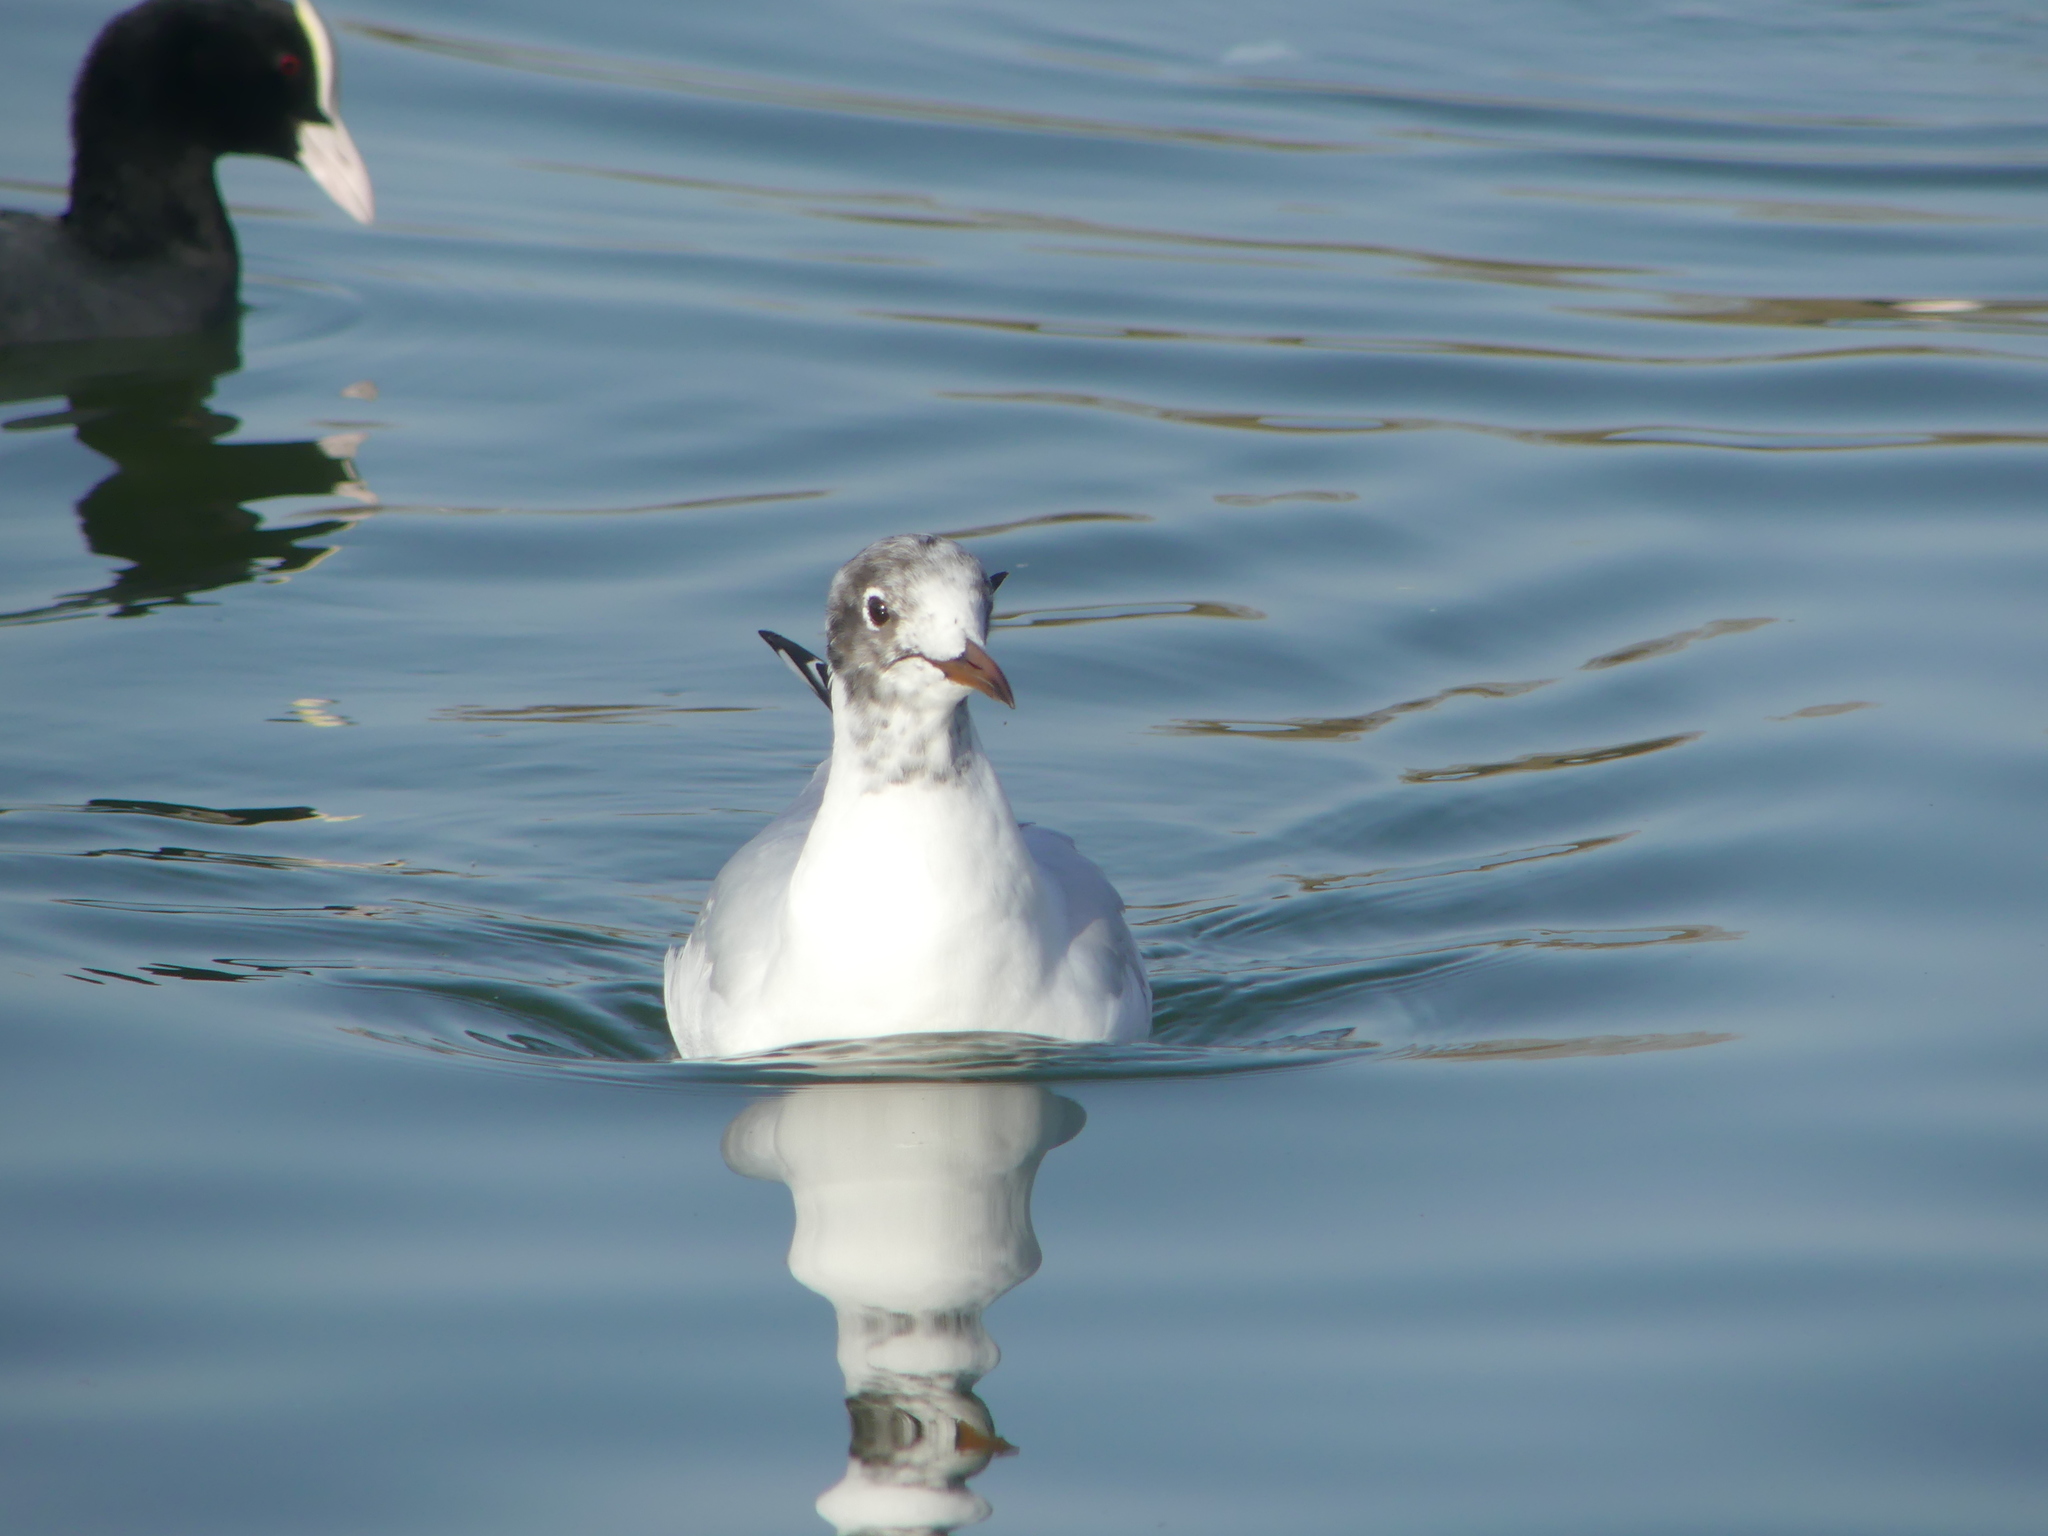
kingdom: Animalia
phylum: Chordata
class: Aves
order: Charadriiformes
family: Laridae
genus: Chroicocephalus
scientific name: Chroicocephalus ridibundus
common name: Black-headed gull
